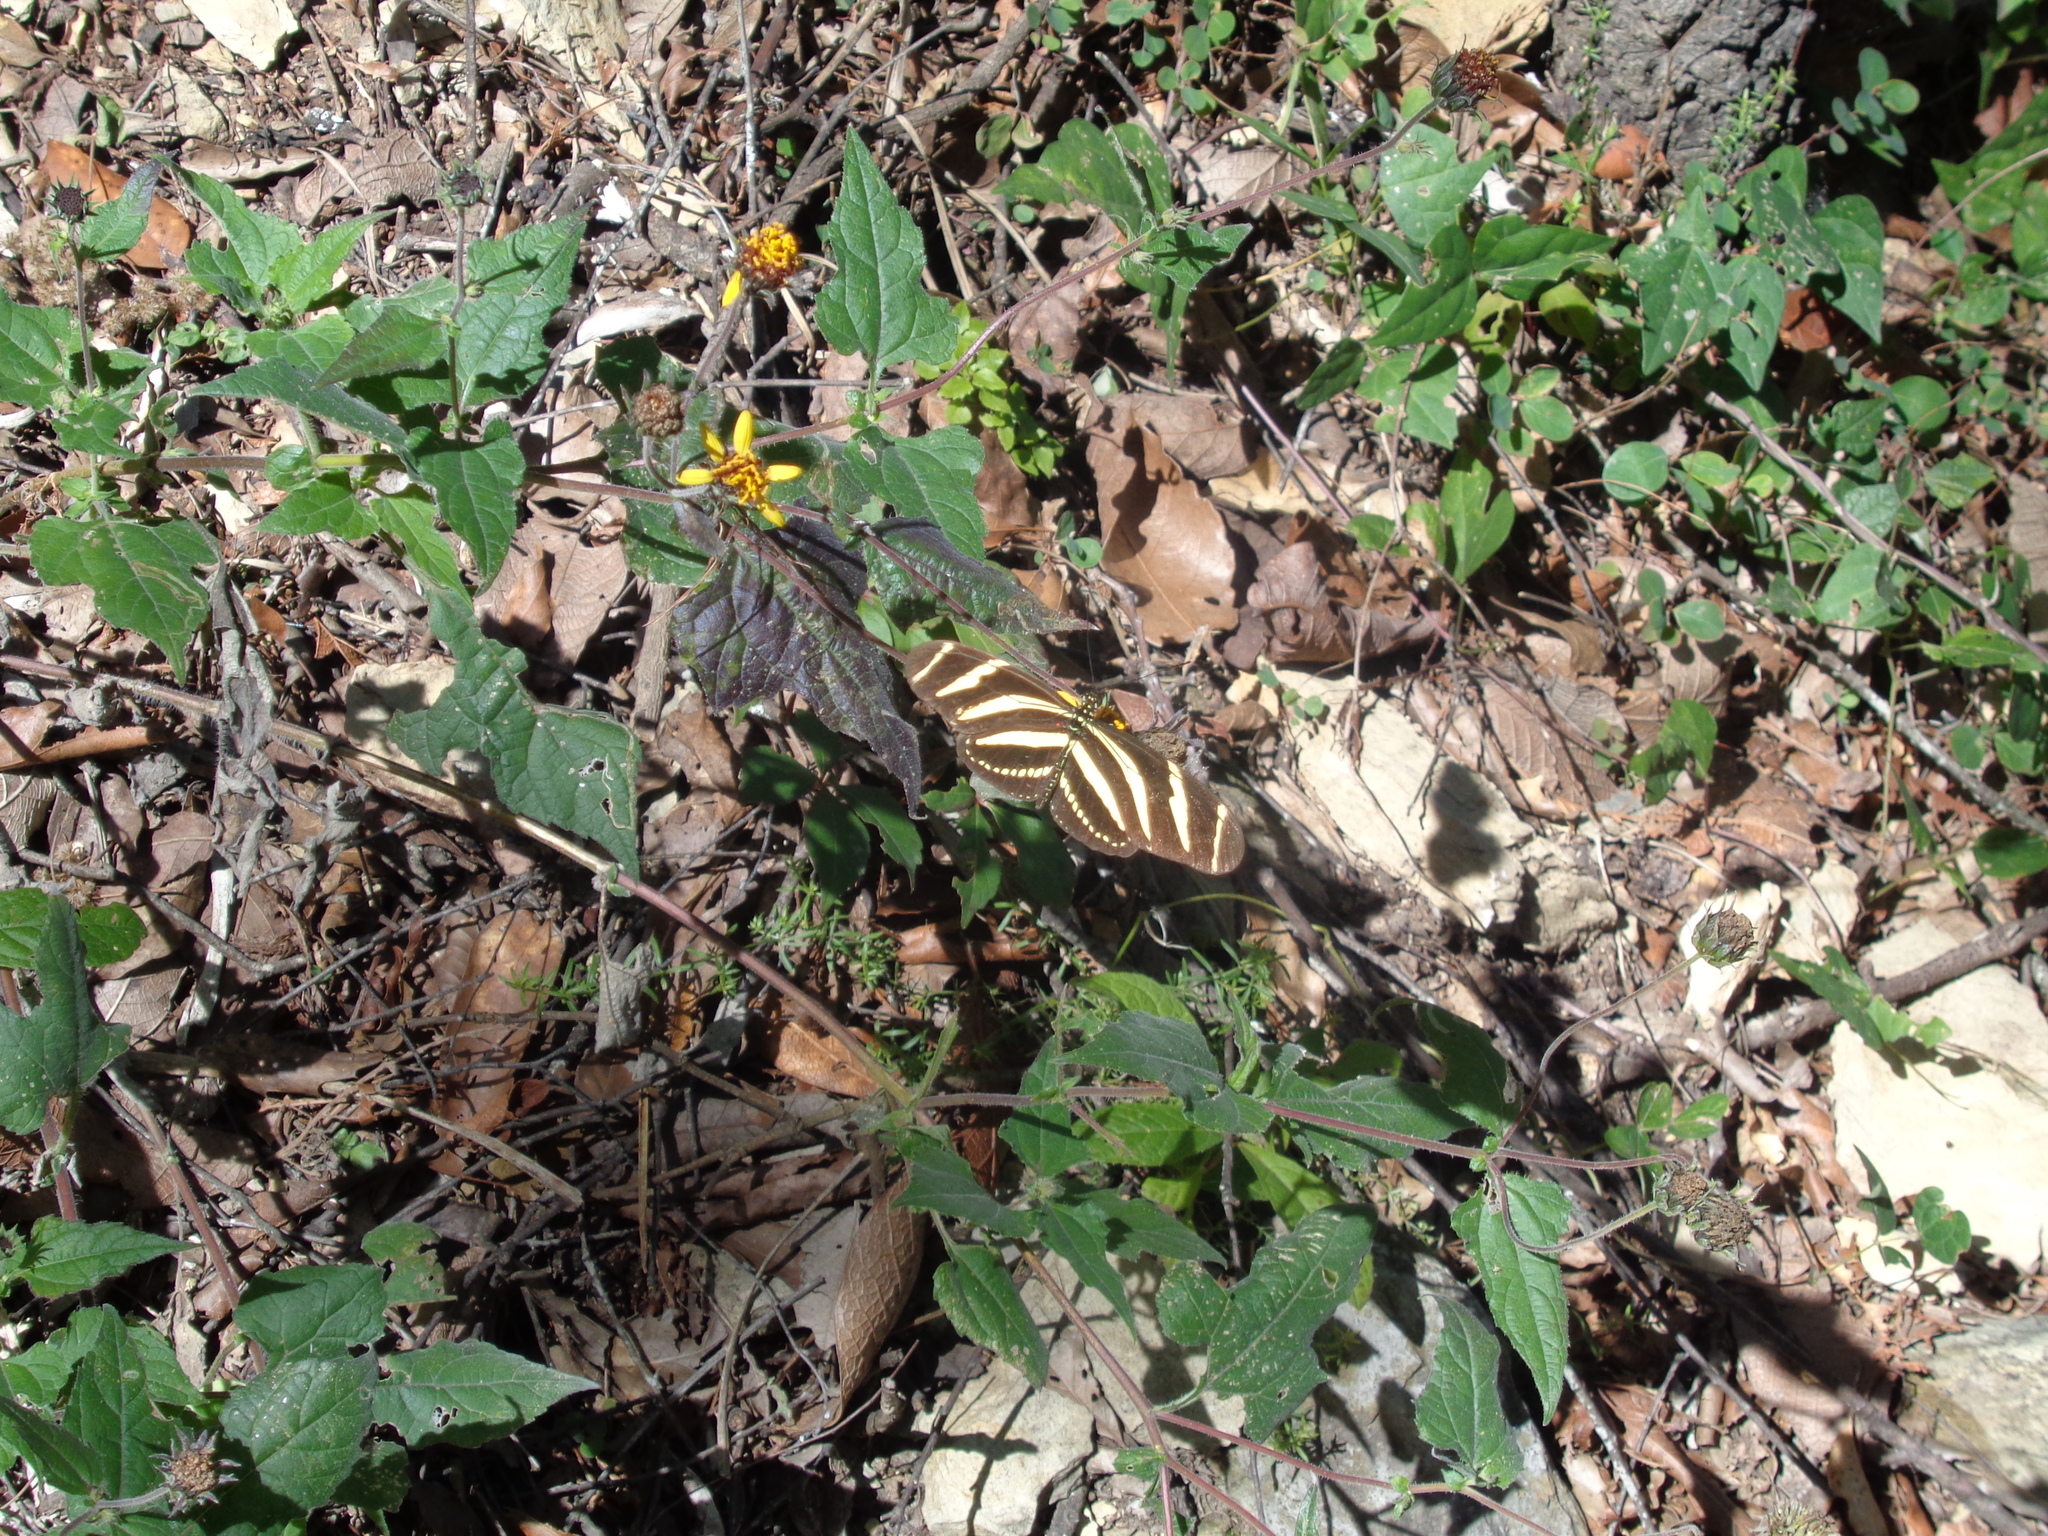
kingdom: Animalia
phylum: Arthropoda
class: Insecta
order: Lepidoptera
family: Nymphalidae
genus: Heliconius
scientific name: Heliconius charithonia
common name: Zebra long wing
